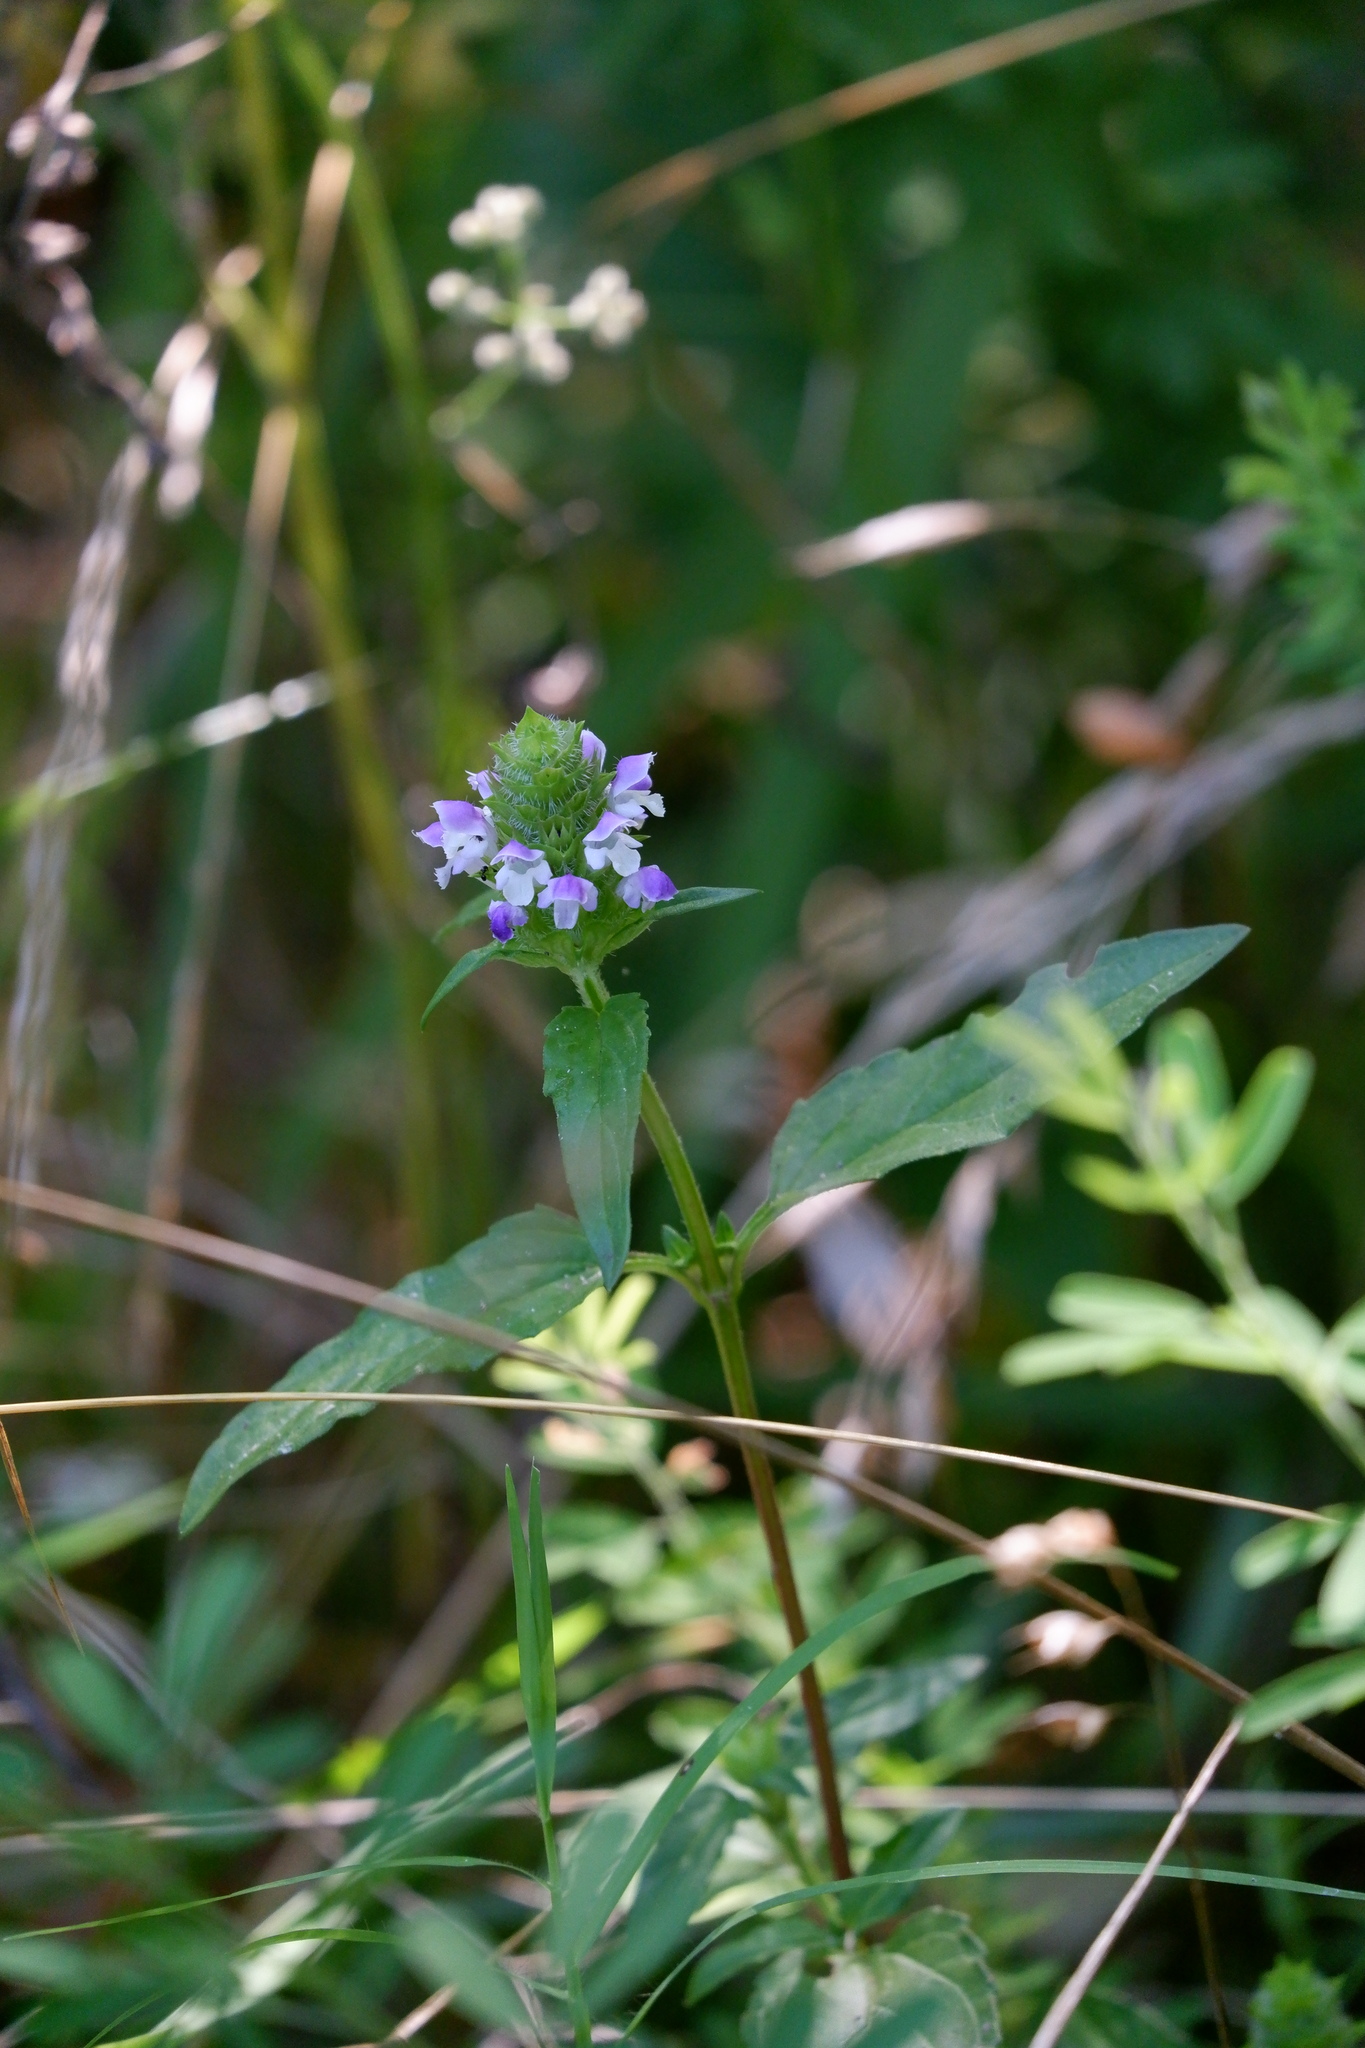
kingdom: Plantae
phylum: Tracheophyta
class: Magnoliopsida
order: Lamiales
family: Lamiaceae
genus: Prunella
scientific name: Prunella vulgaris
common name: Heal-all
